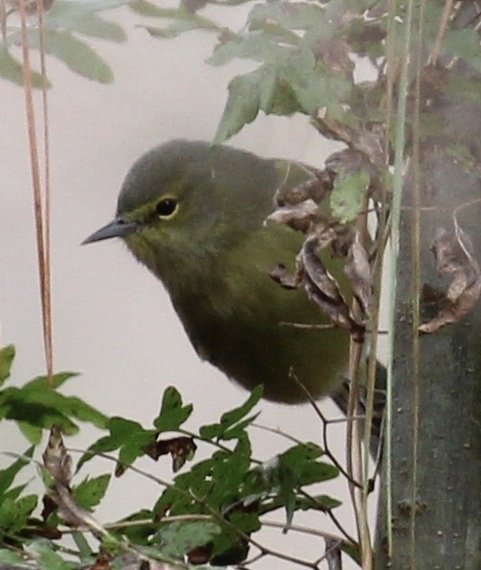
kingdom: Animalia
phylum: Chordata
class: Aves
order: Passeriformes
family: Parulidae
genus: Leiothlypis
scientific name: Leiothlypis celata
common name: Orange-crowned warbler
